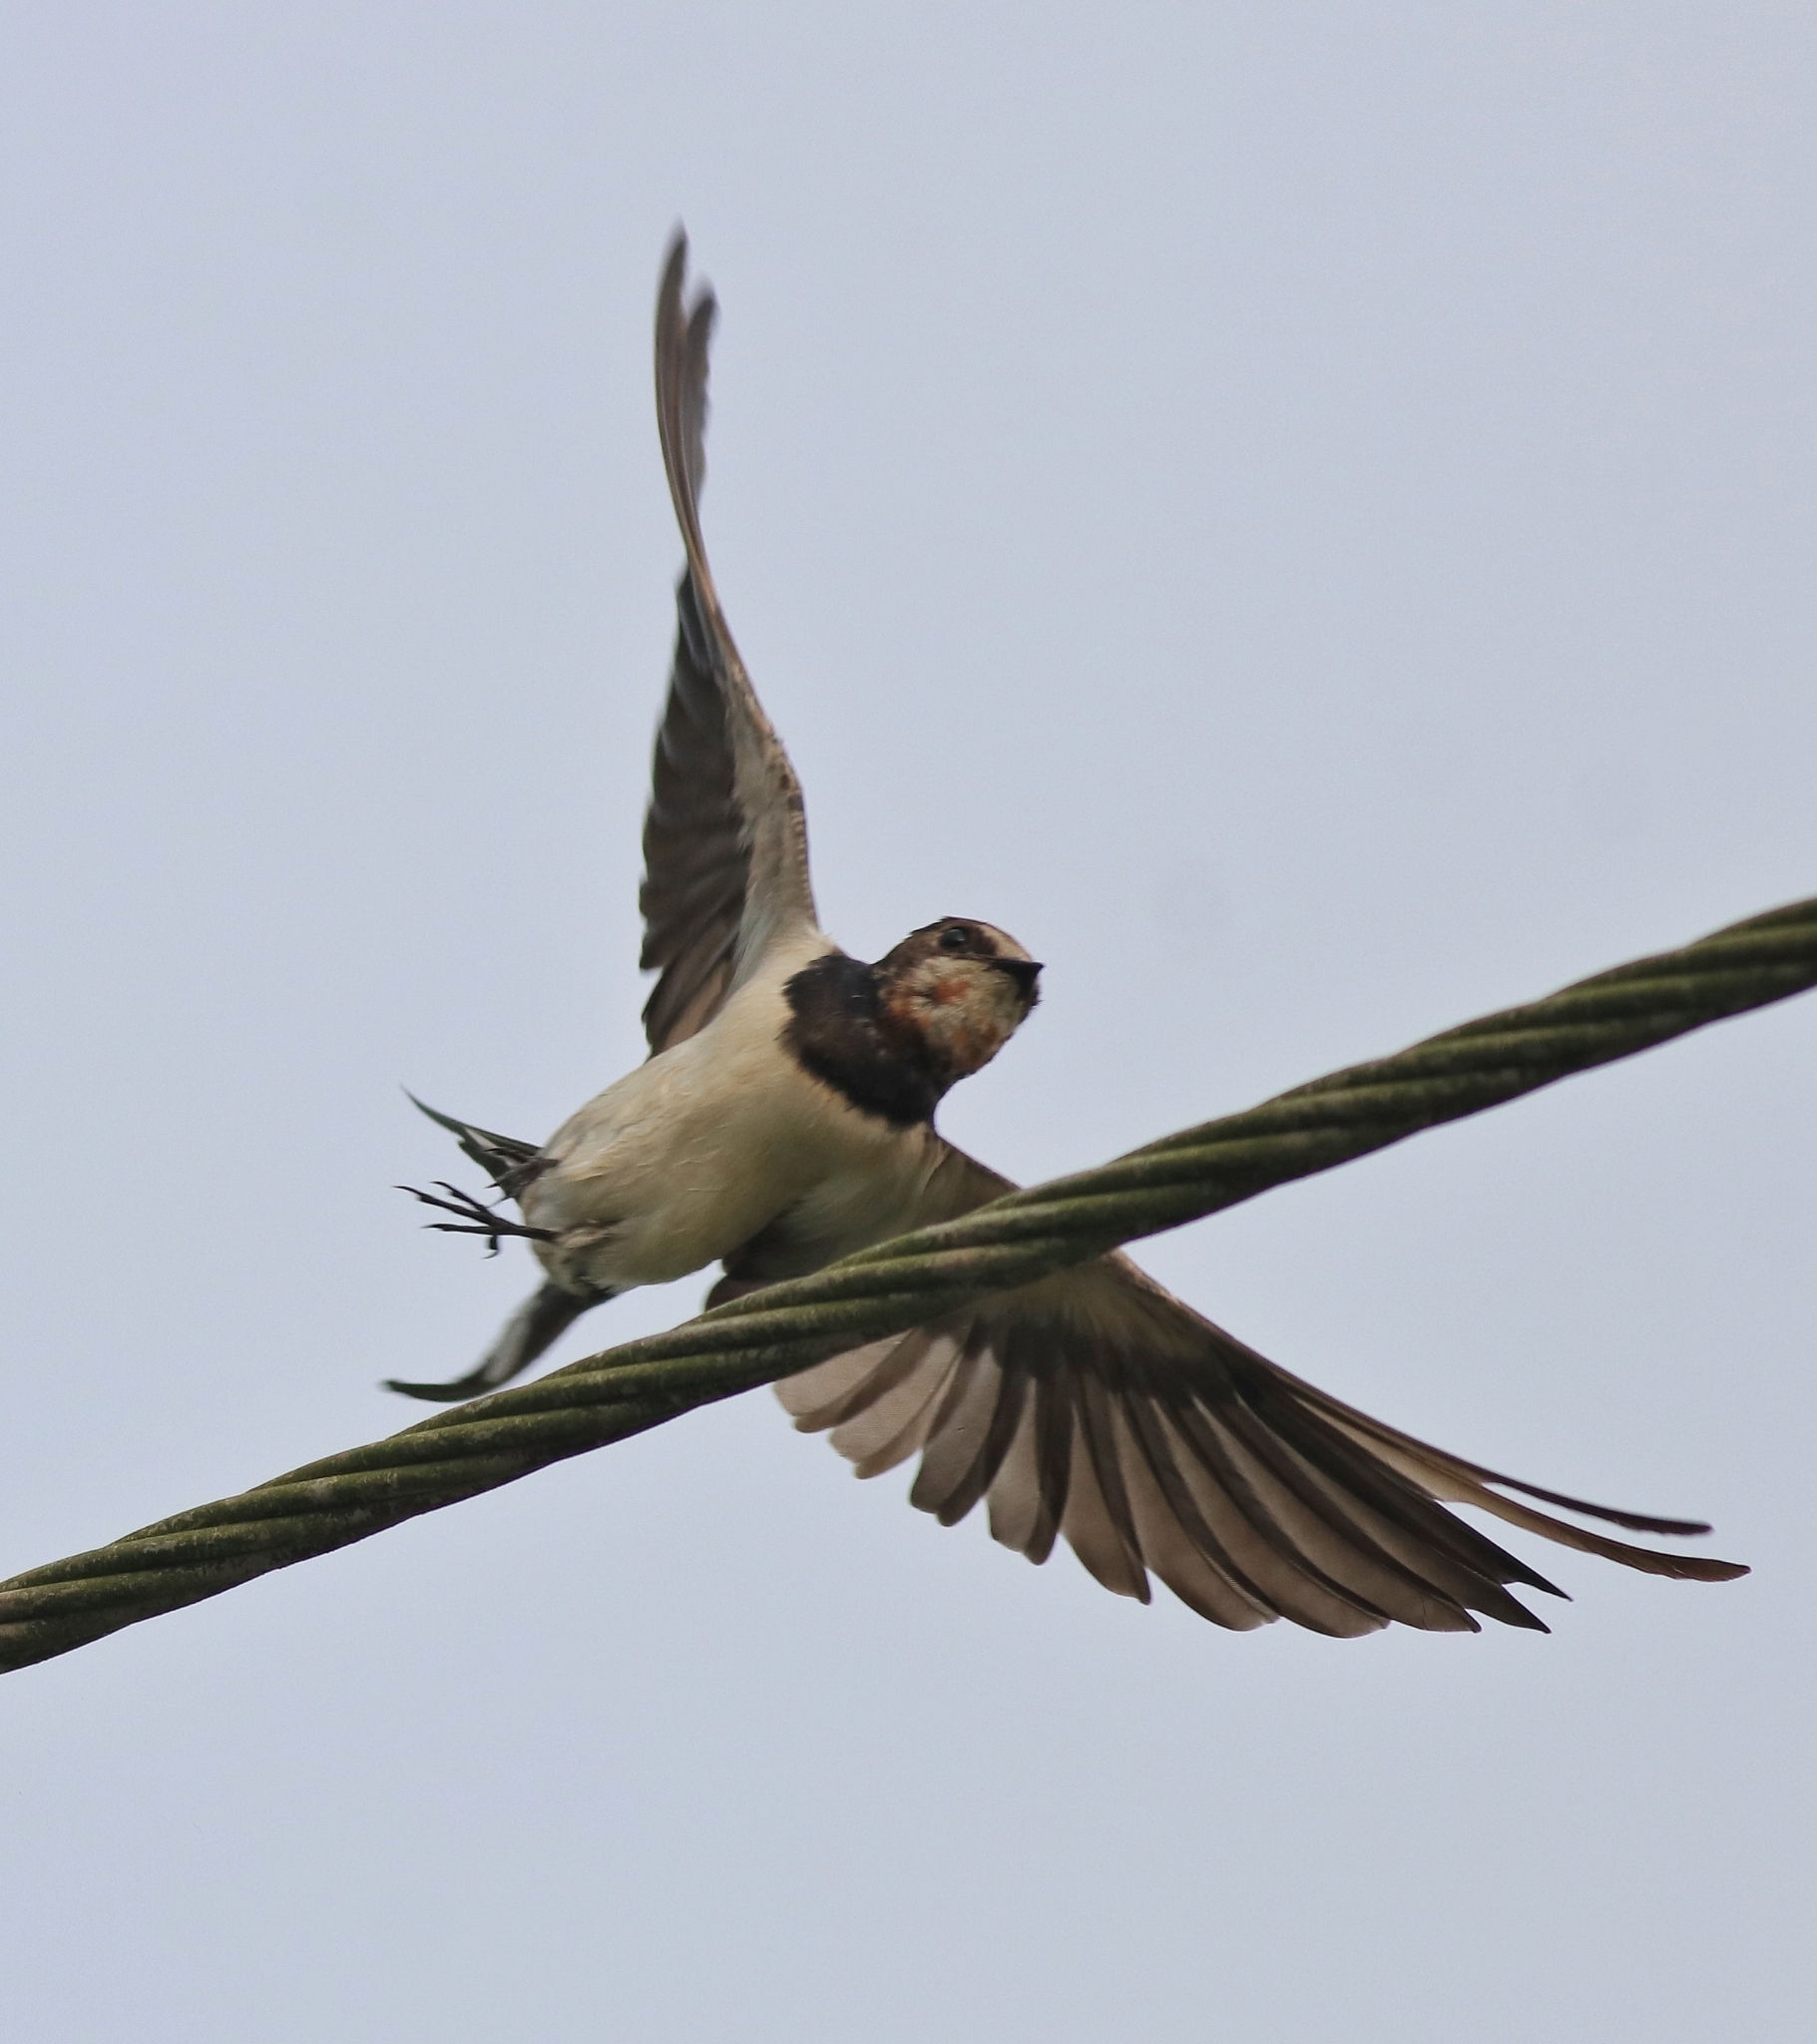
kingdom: Animalia
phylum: Chordata
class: Aves
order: Passeriformes
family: Hirundinidae
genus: Hirundo
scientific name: Hirundo rustica
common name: Barn swallow
